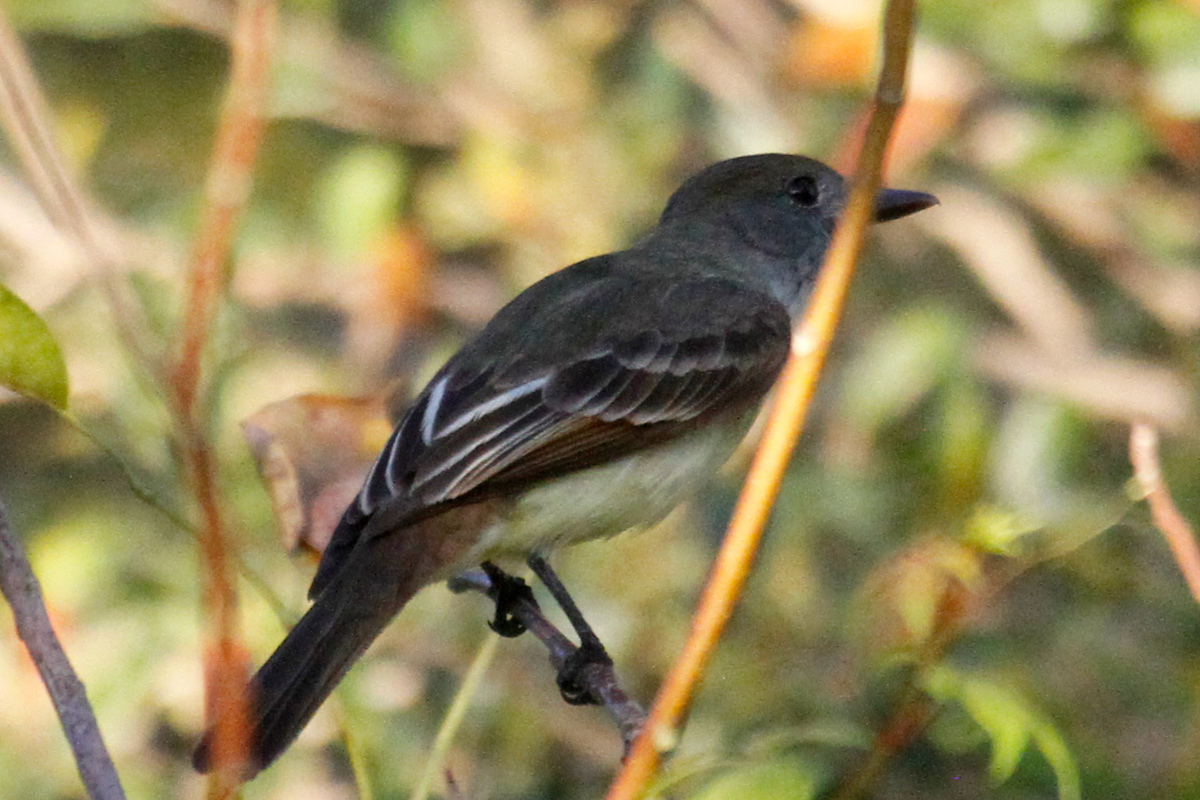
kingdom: Animalia
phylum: Chordata
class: Aves
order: Passeriformes
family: Tyrannidae
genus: Myiarchus
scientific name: Myiarchus tyrannulus
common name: Brown-crested flycatcher
